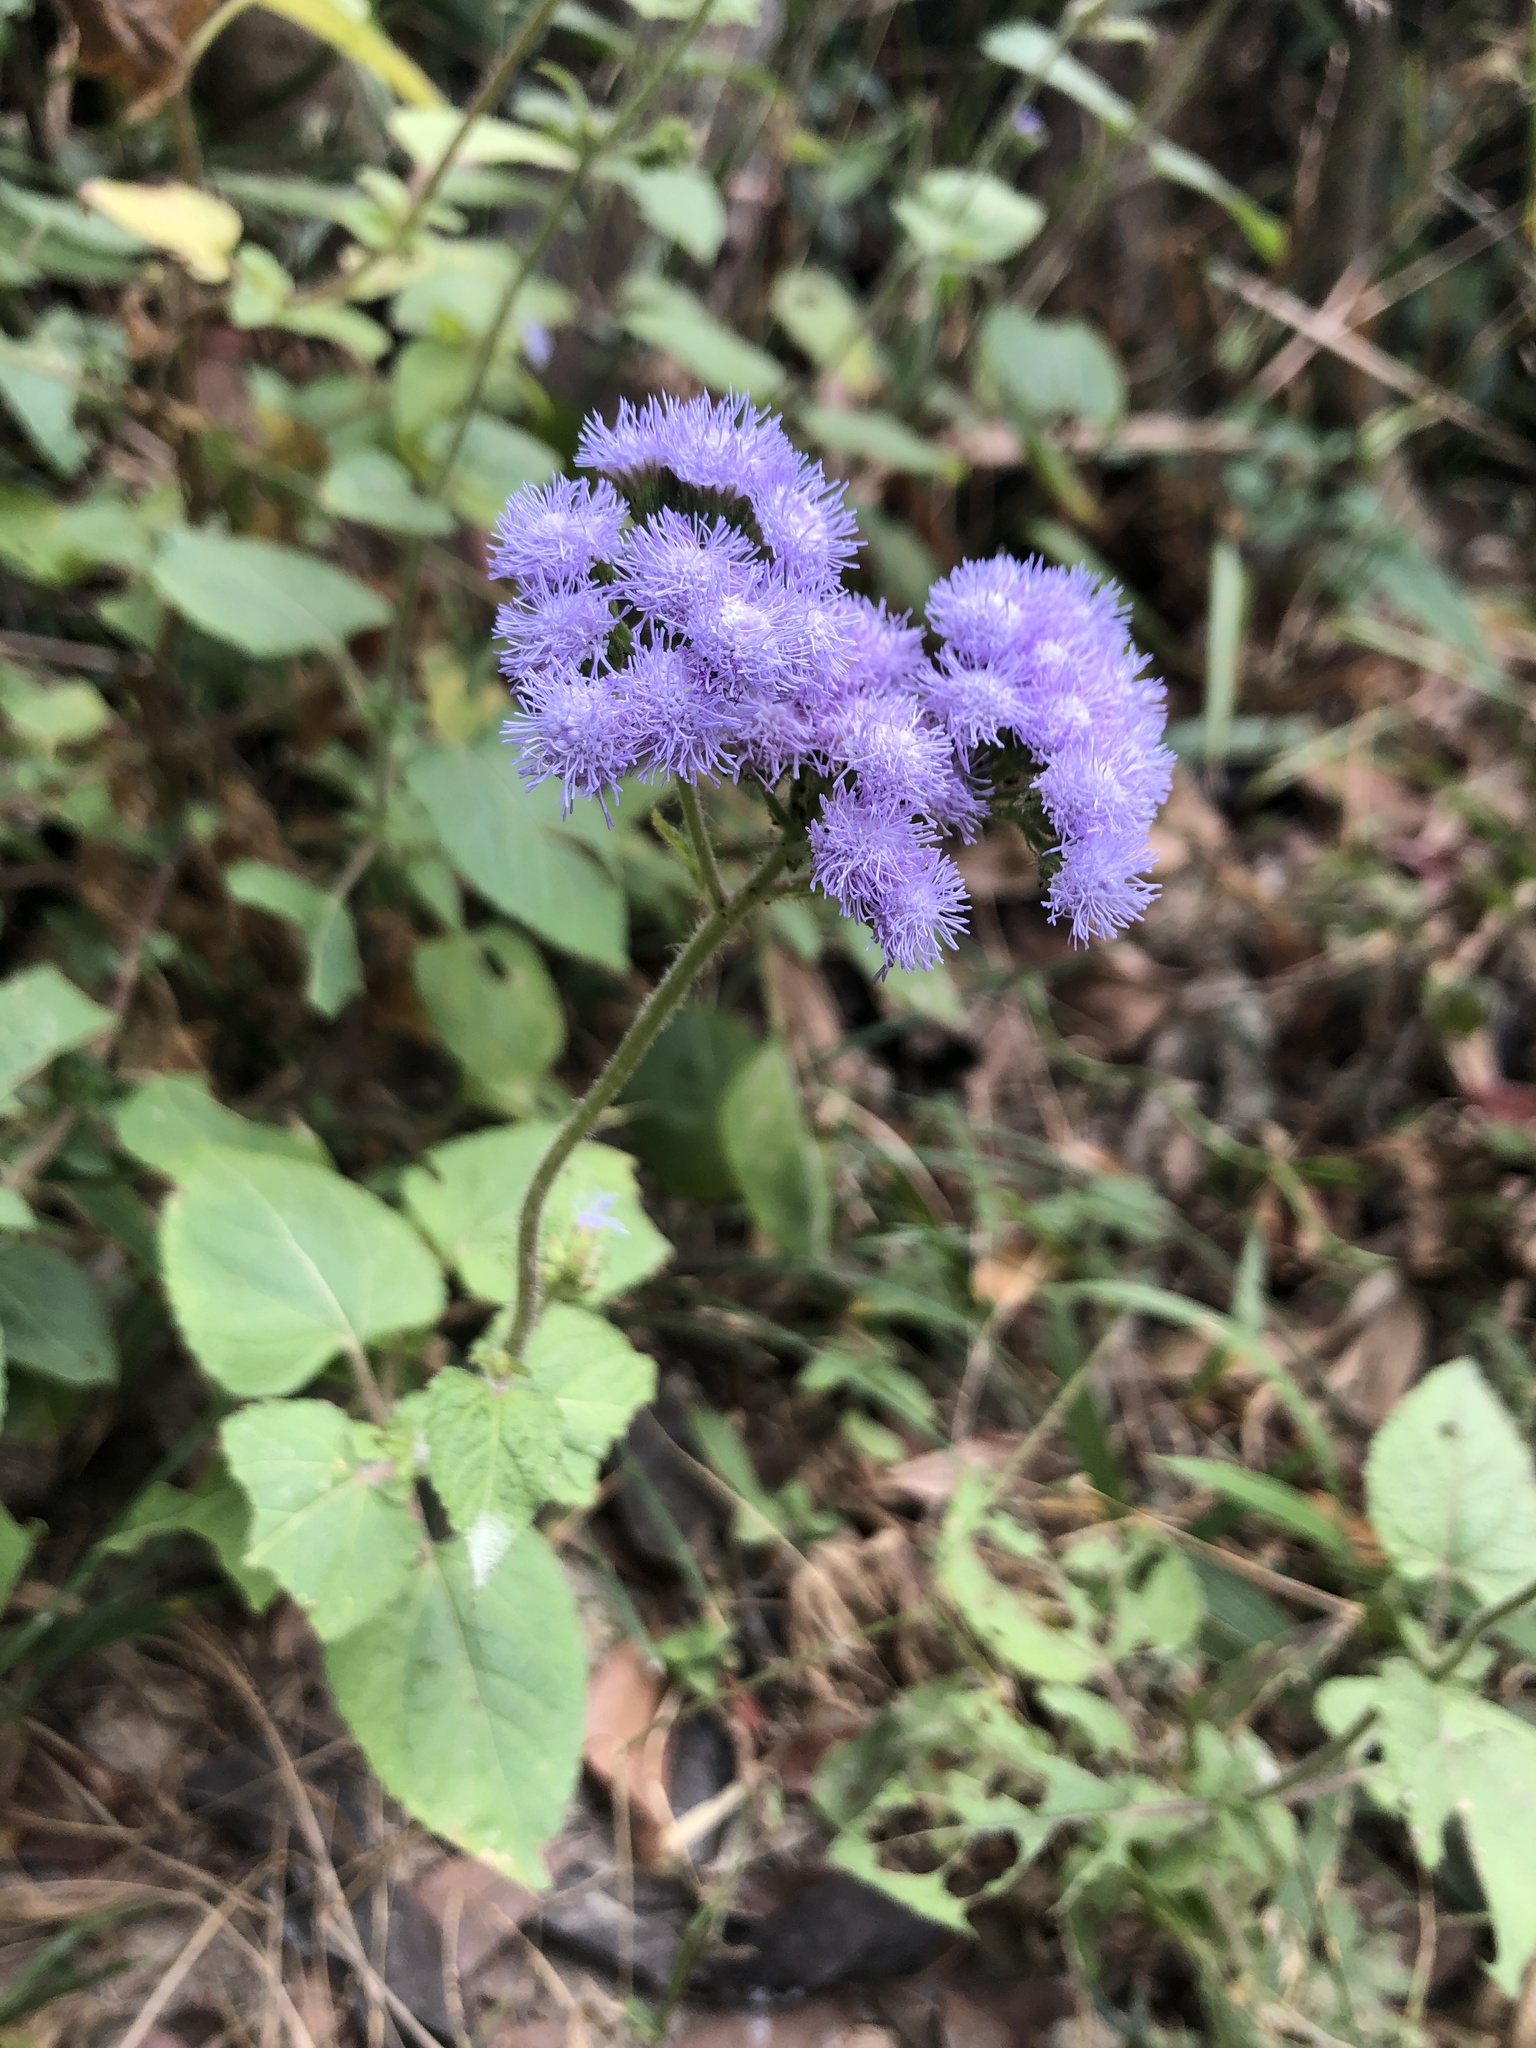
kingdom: Plantae
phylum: Tracheophyta
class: Magnoliopsida
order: Asterales
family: Asteraceae
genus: Ageratum
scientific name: Ageratum houstonianum
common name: Bluemink
